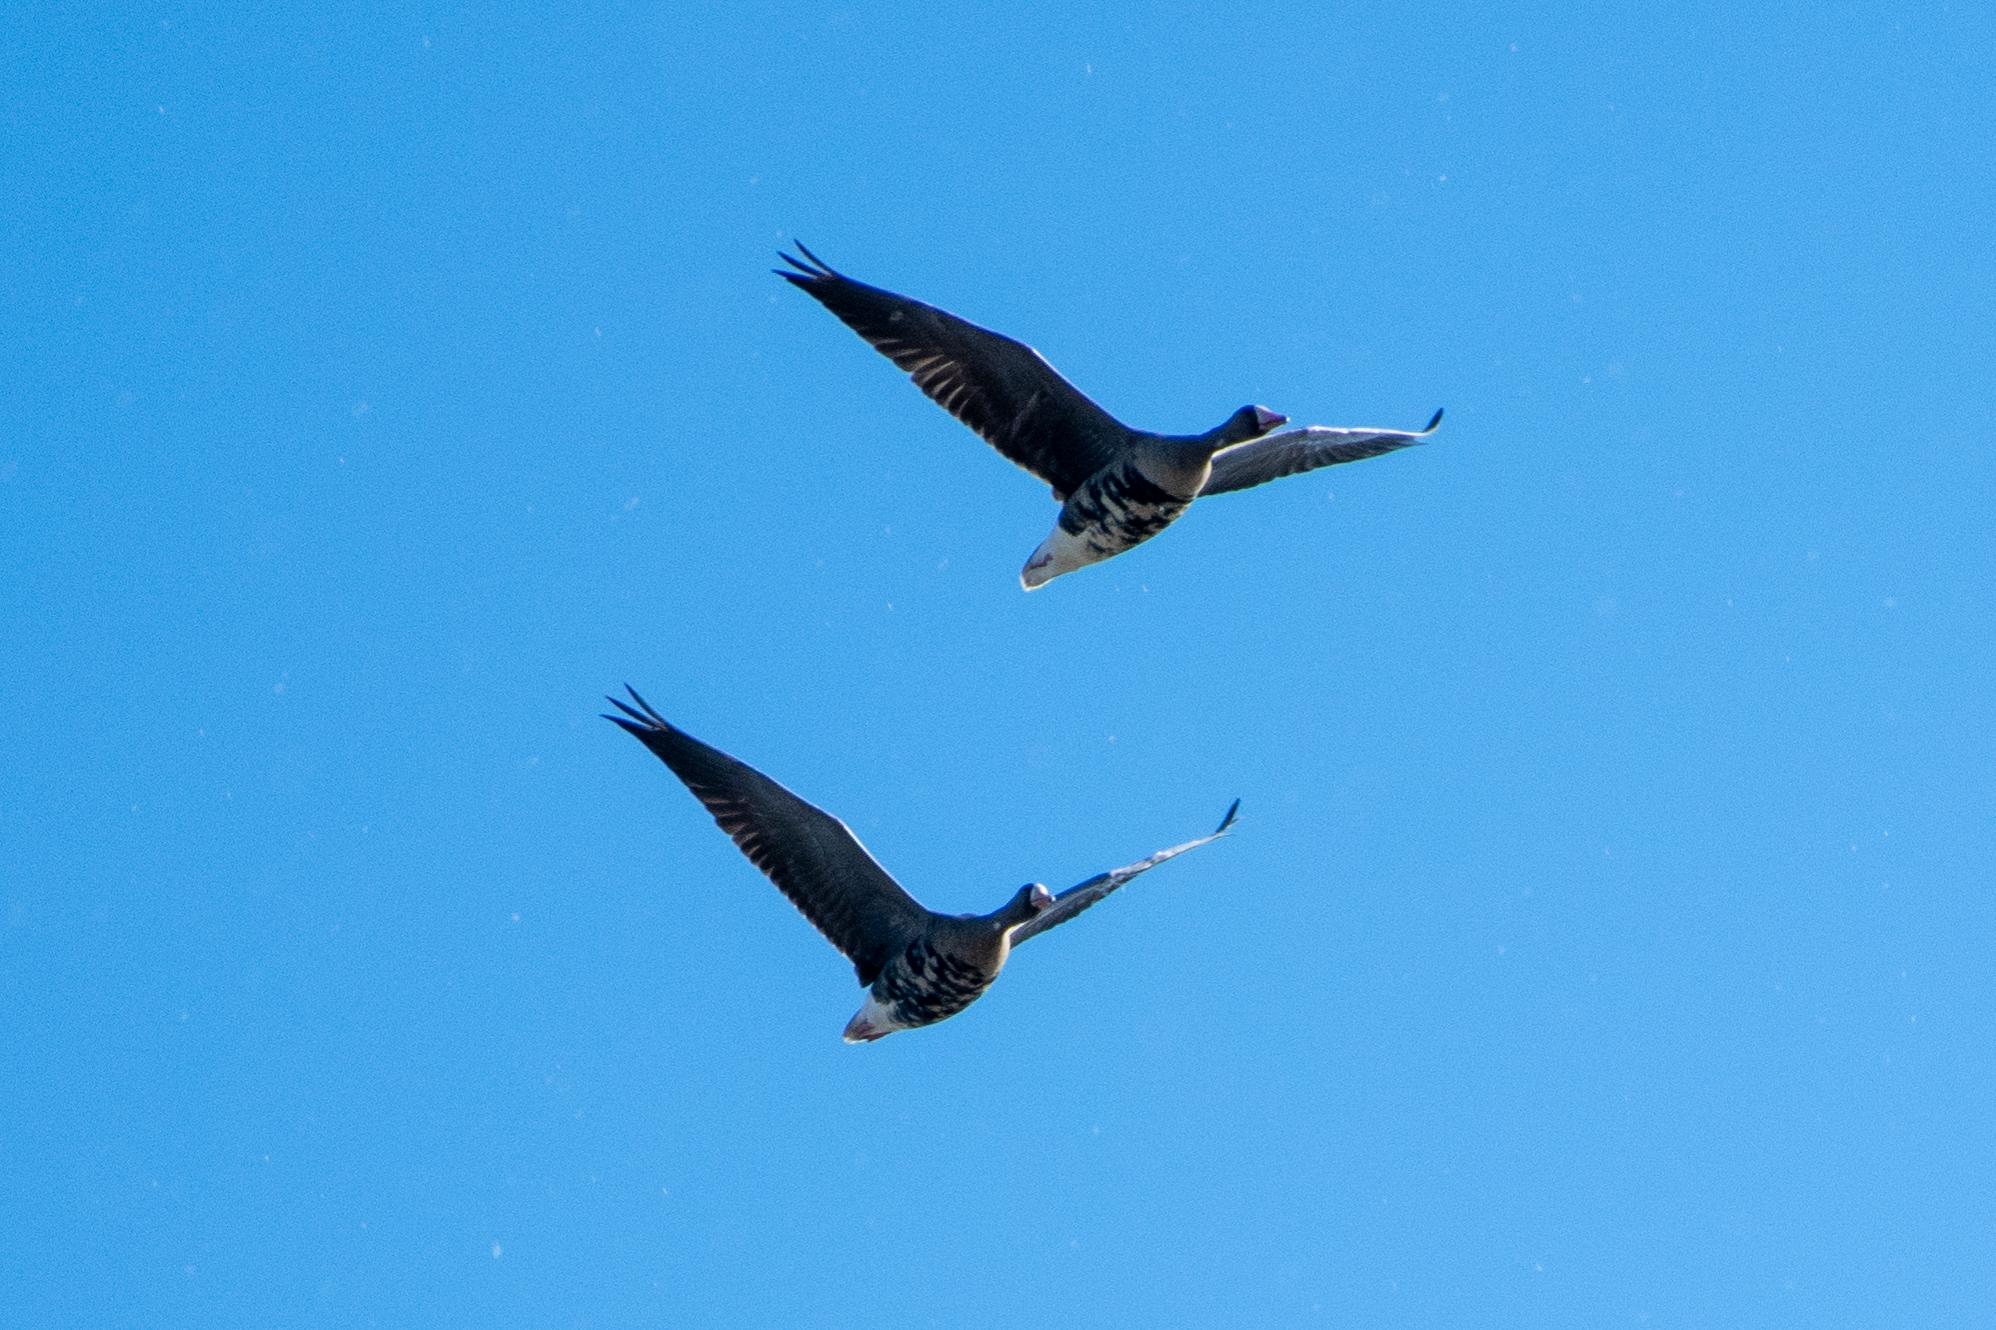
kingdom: Animalia
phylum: Chordata
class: Aves
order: Anseriformes
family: Anatidae
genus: Anser
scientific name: Anser albifrons
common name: Greater white-fronted goose
